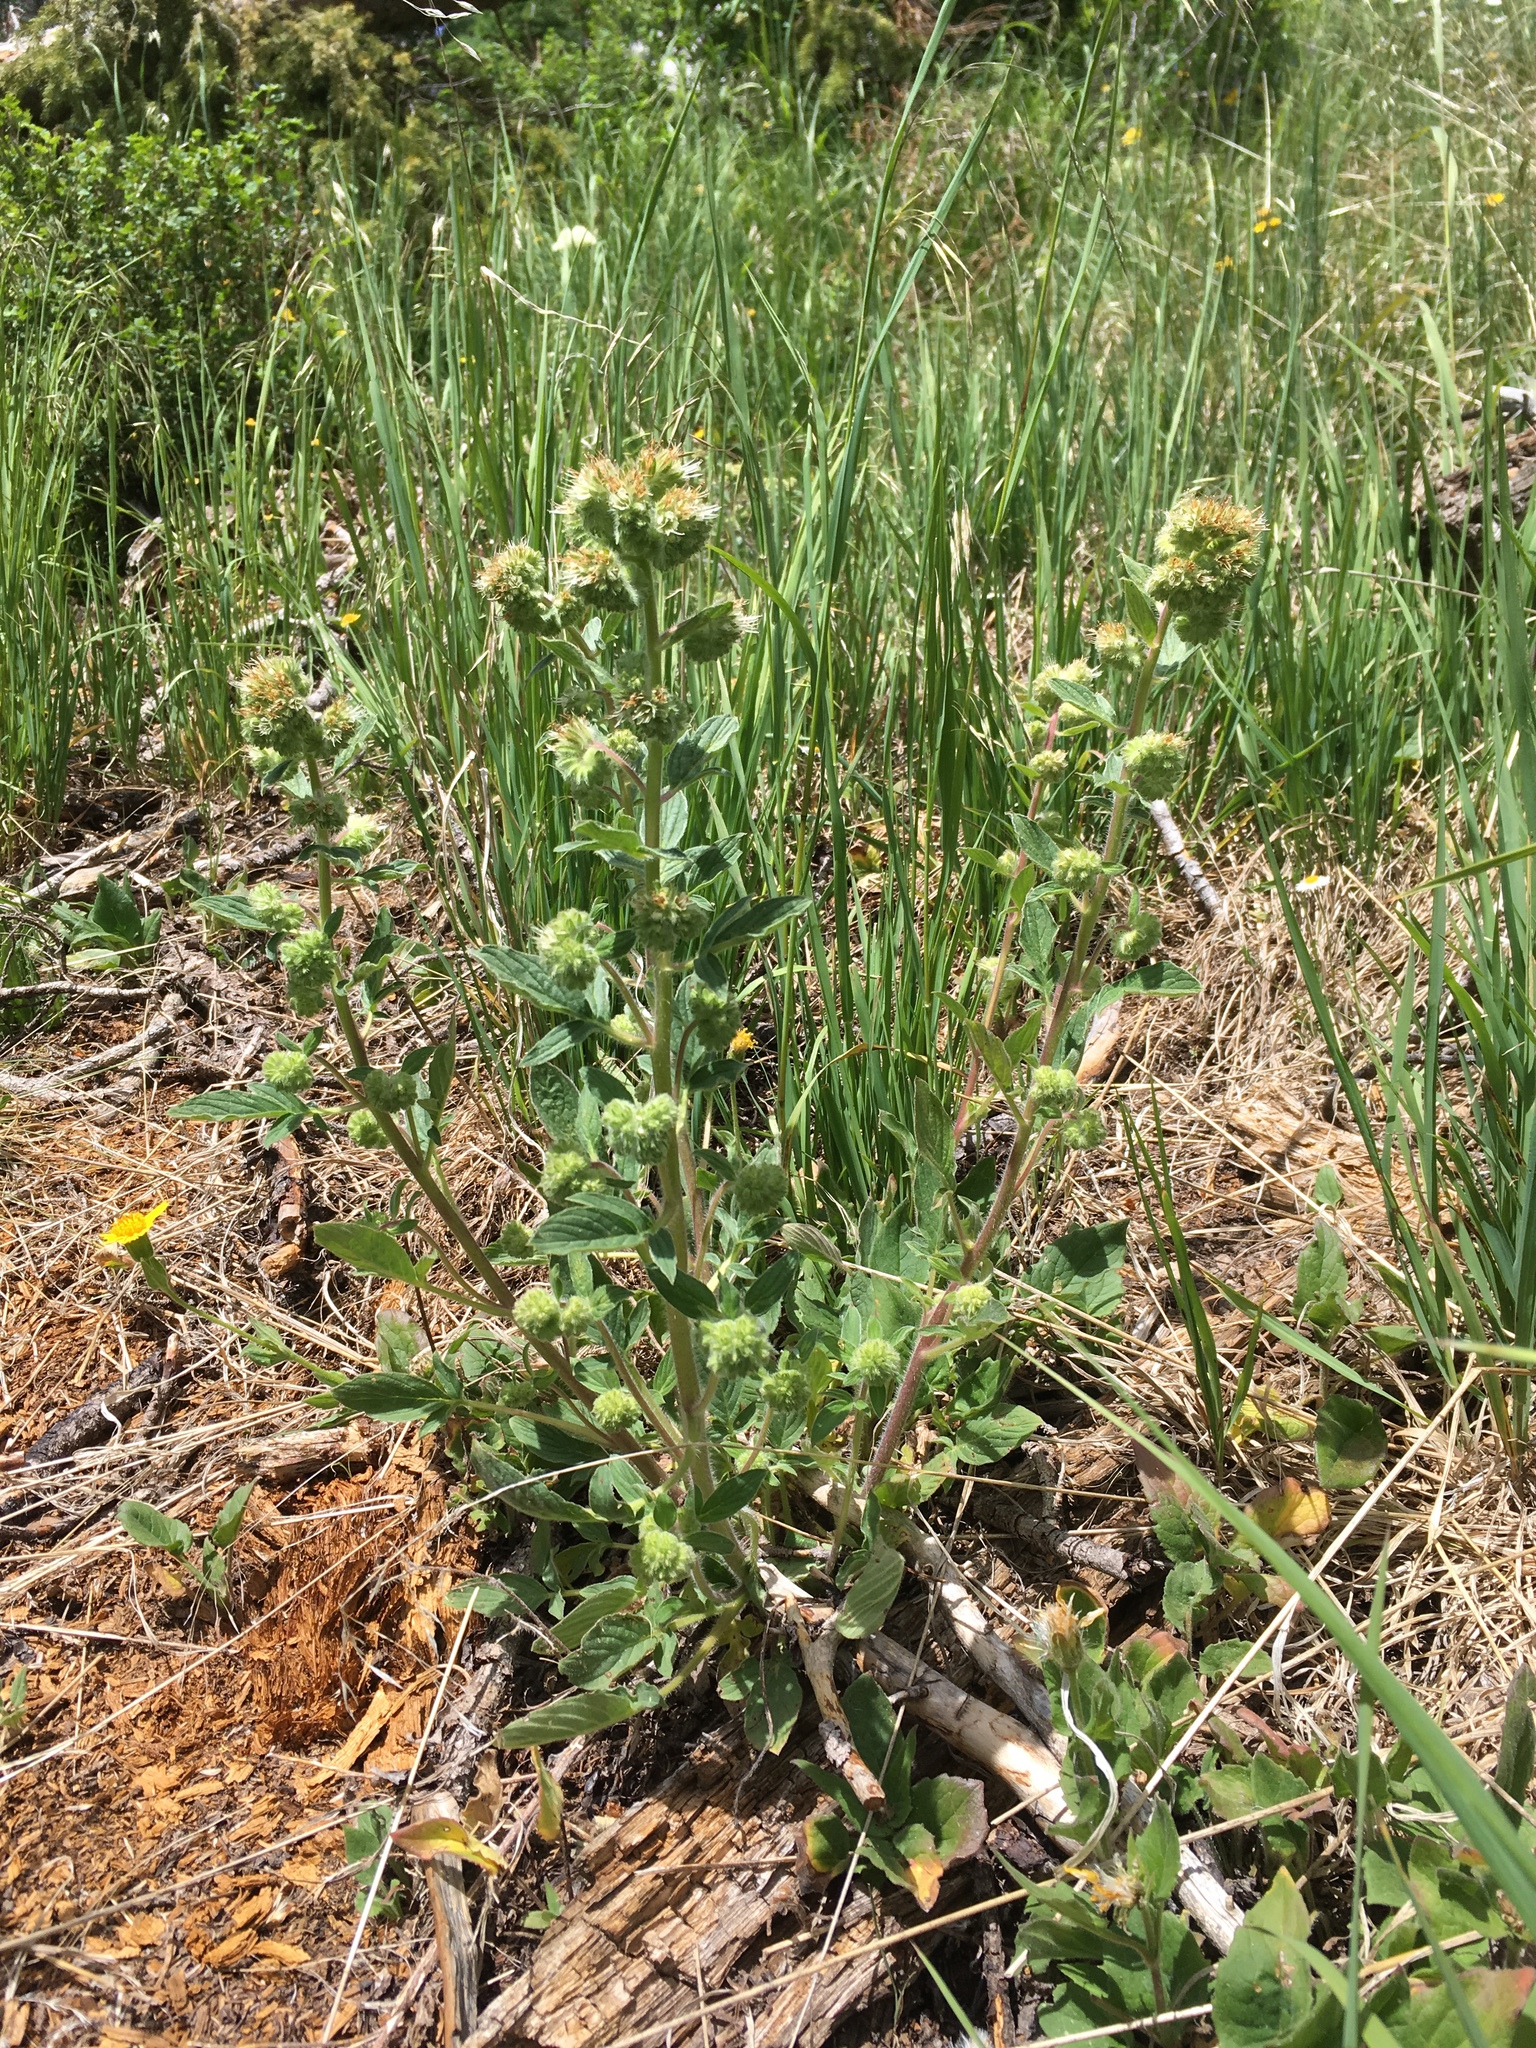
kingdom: Plantae
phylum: Tracheophyta
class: Magnoliopsida
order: Boraginales
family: Hydrophyllaceae
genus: Phacelia
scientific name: Phacelia heterophylla
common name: Variable-leaved phacelia
